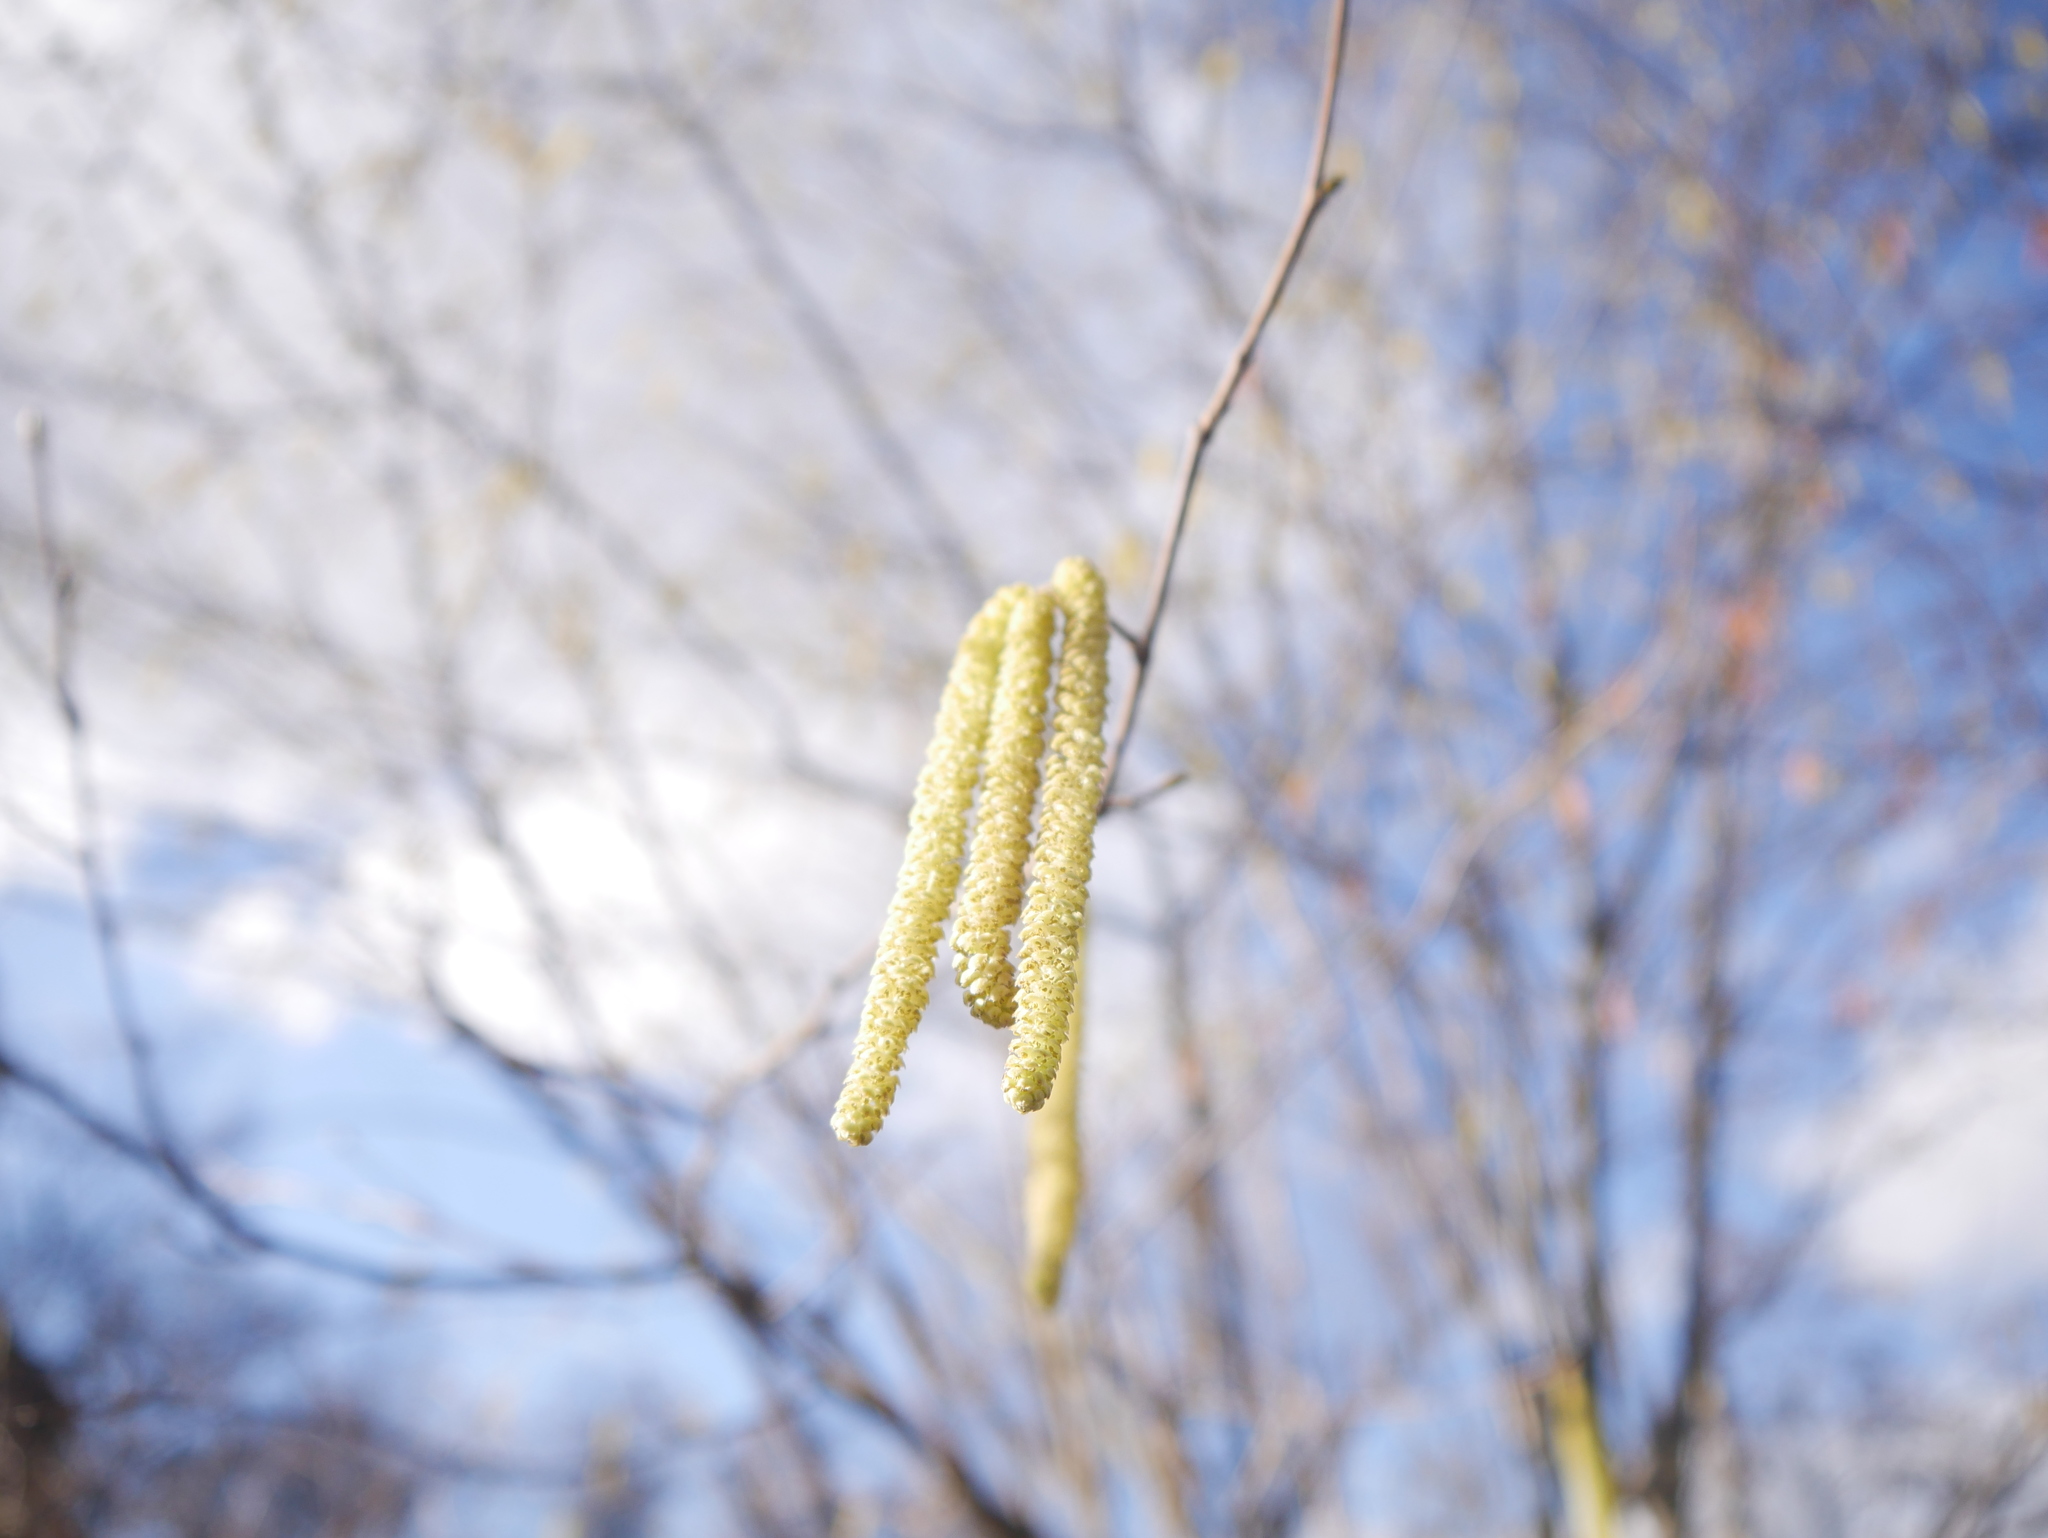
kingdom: Plantae
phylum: Tracheophyta
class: Magnoliopsida
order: Fagales
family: Betulaceae
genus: Corylus
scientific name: Corylus avellana
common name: European hazel
